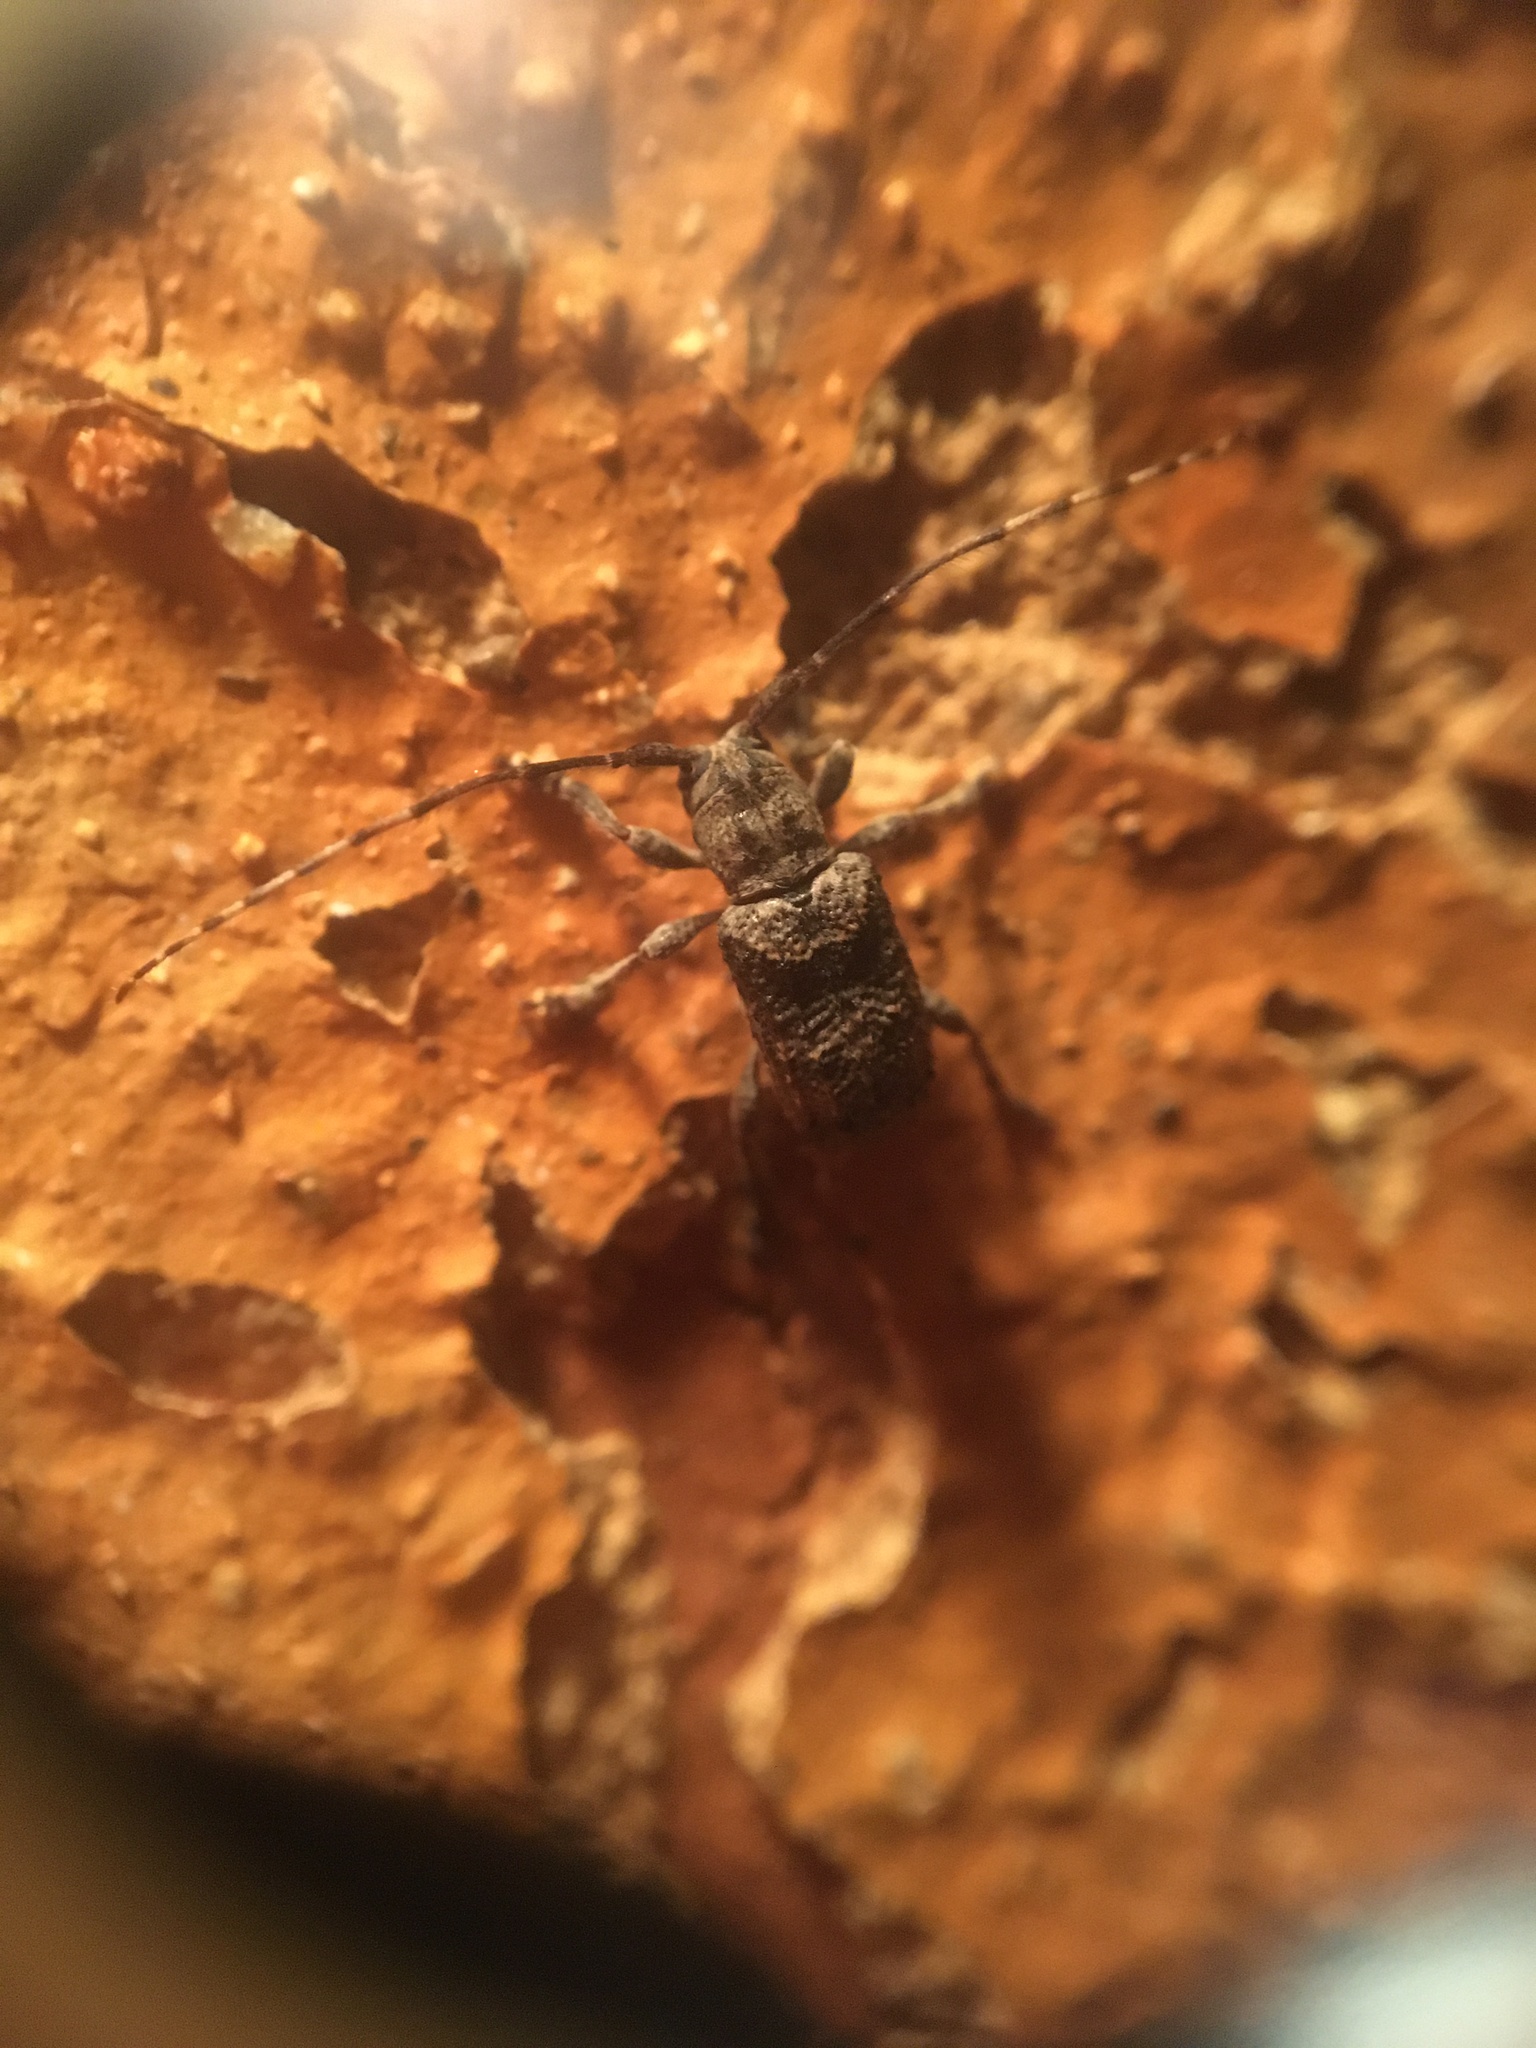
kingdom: Animalia
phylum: Arthropoda
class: Insecta
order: Coleoptera
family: Cerambycidae
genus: Ecyrus
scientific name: Ecyrus dasycerus
